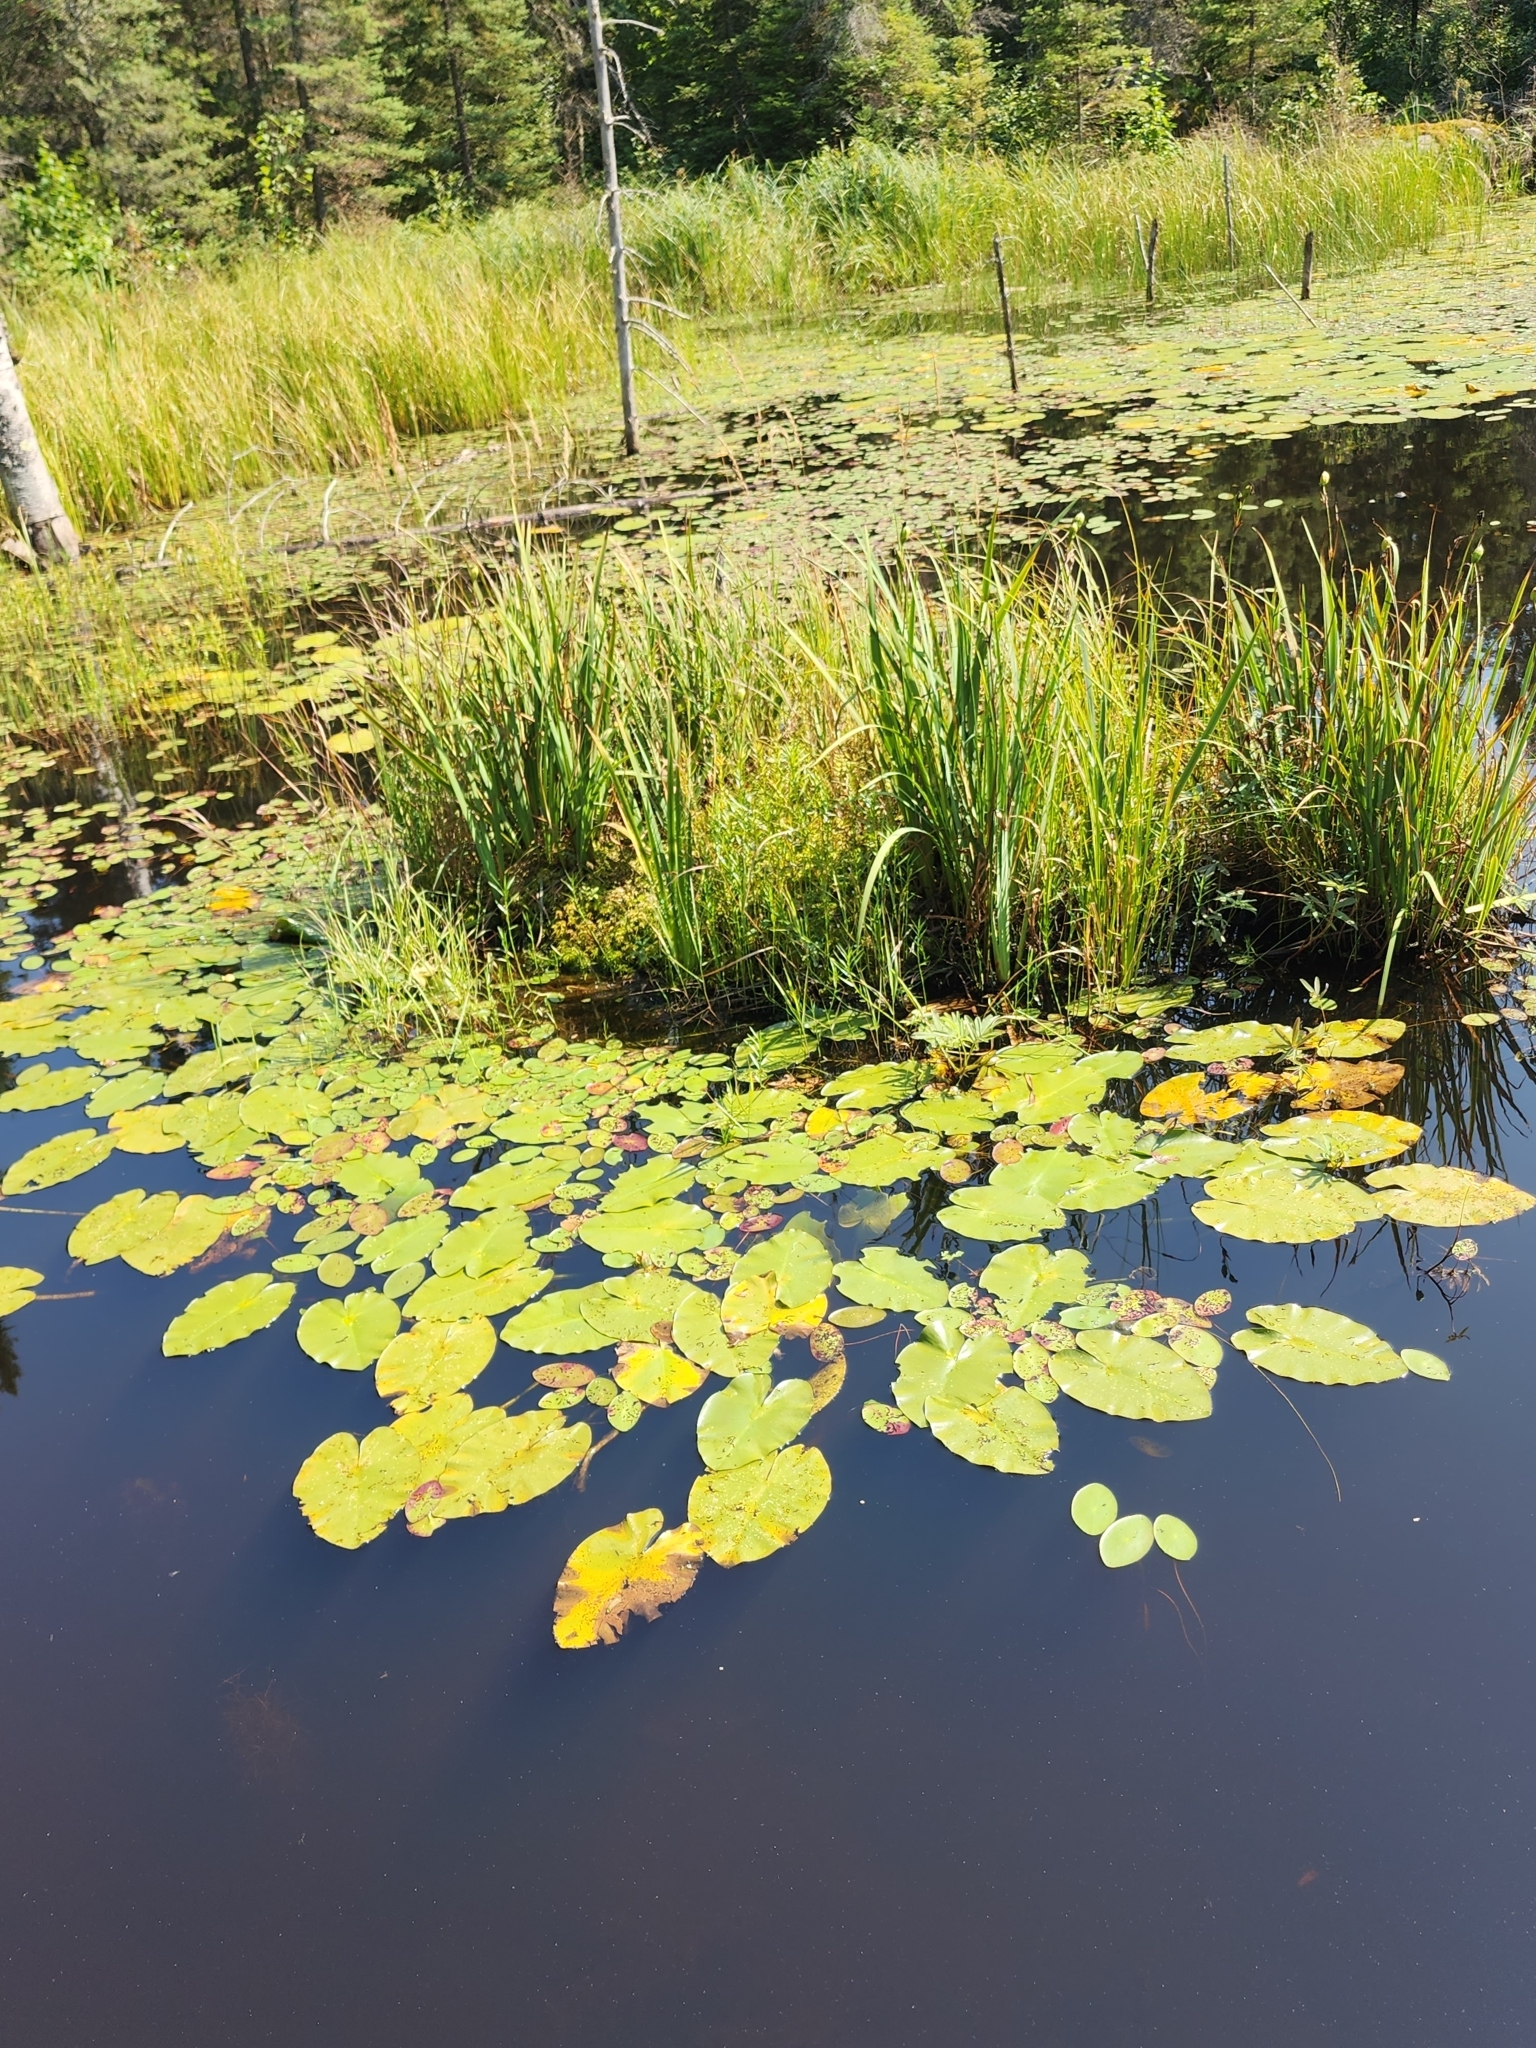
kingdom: Plantae
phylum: Tracheophyta
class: Magnoliopsida
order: Nymphaeales
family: Nymphaeaceae
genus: Nuphar
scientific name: Nuphar variegata
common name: Beaver-root
